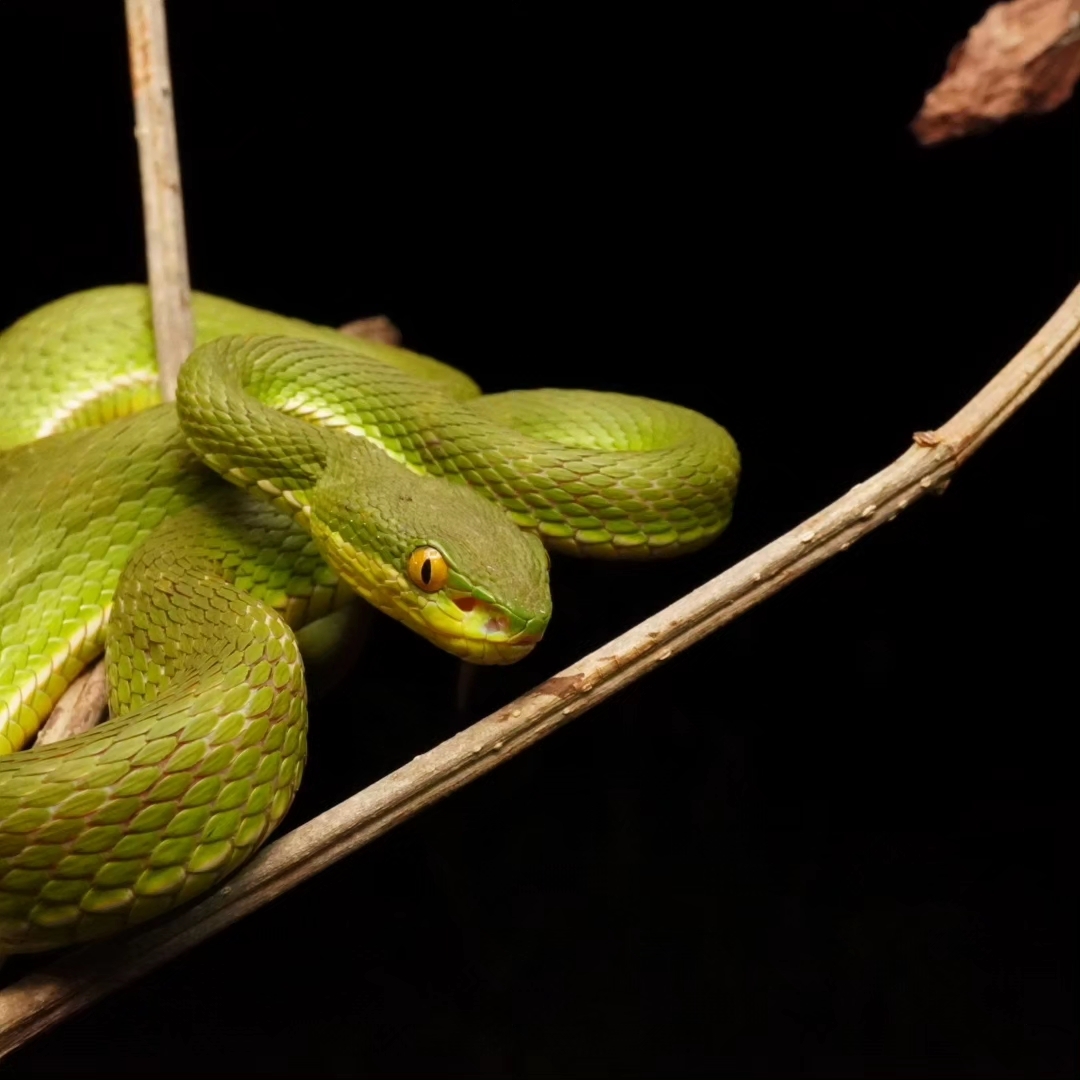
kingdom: Animalia
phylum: Chordata
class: Squamata
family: Viperidae
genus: Trimeresurus
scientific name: Trimeresurus albolabris
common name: White-lipped pitviper
